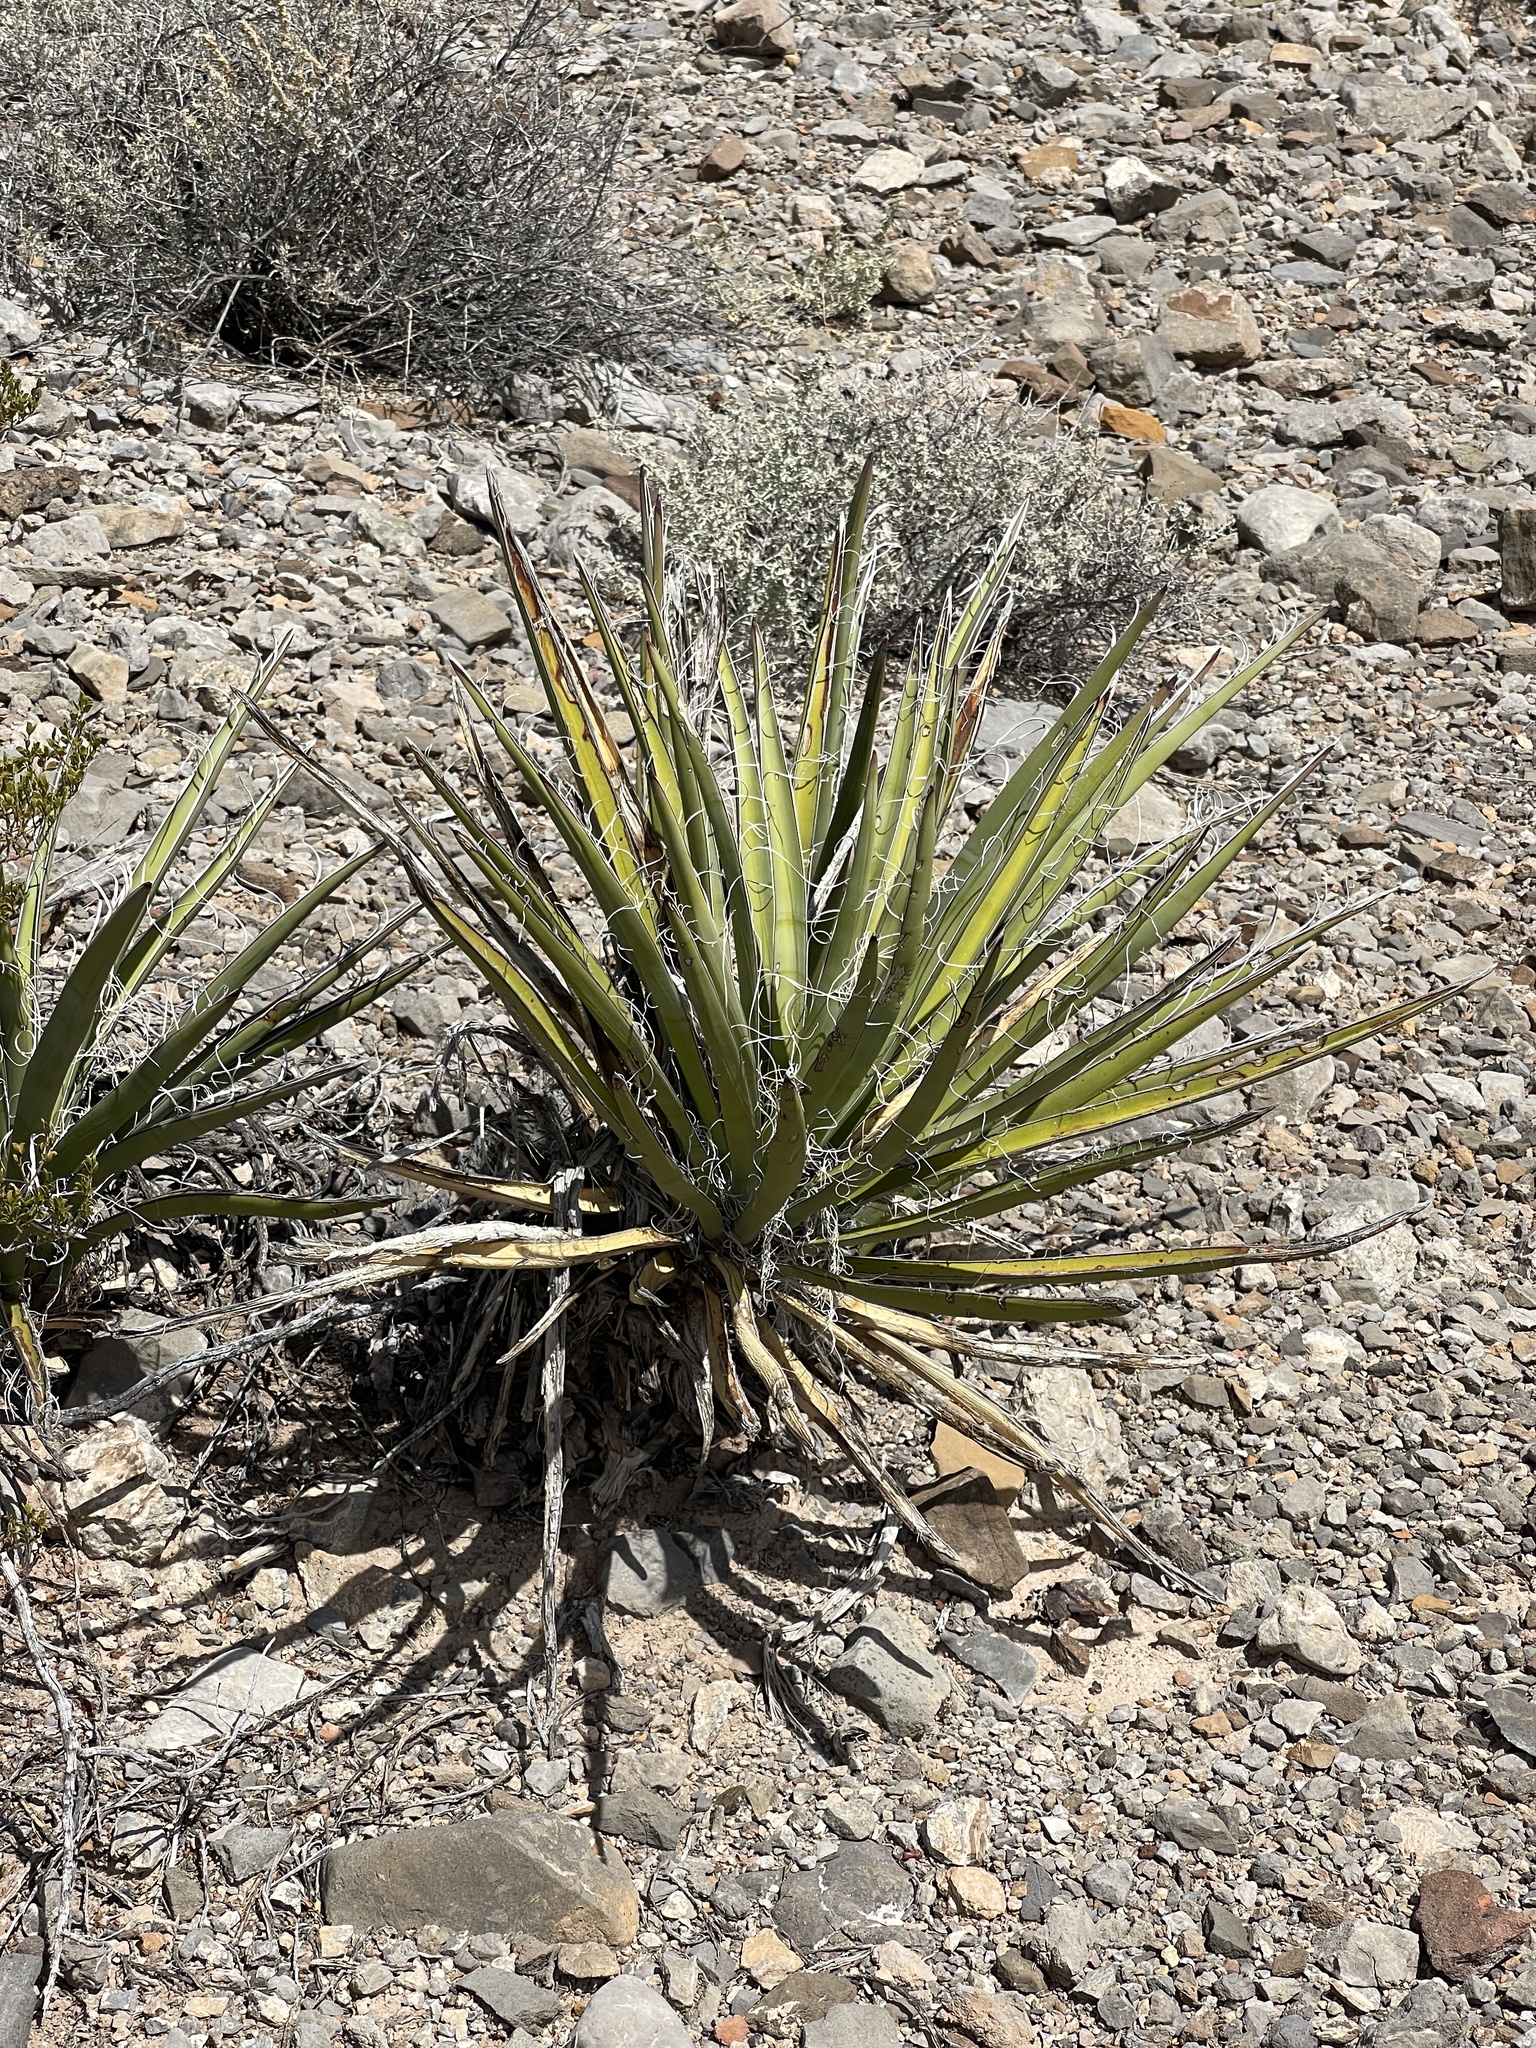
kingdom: Plantae
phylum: Tracheophyta
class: Liliopsida
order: Asparagales
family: Asparagaceae
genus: Yucca
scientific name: Yucca baccata
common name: Banana yucca
